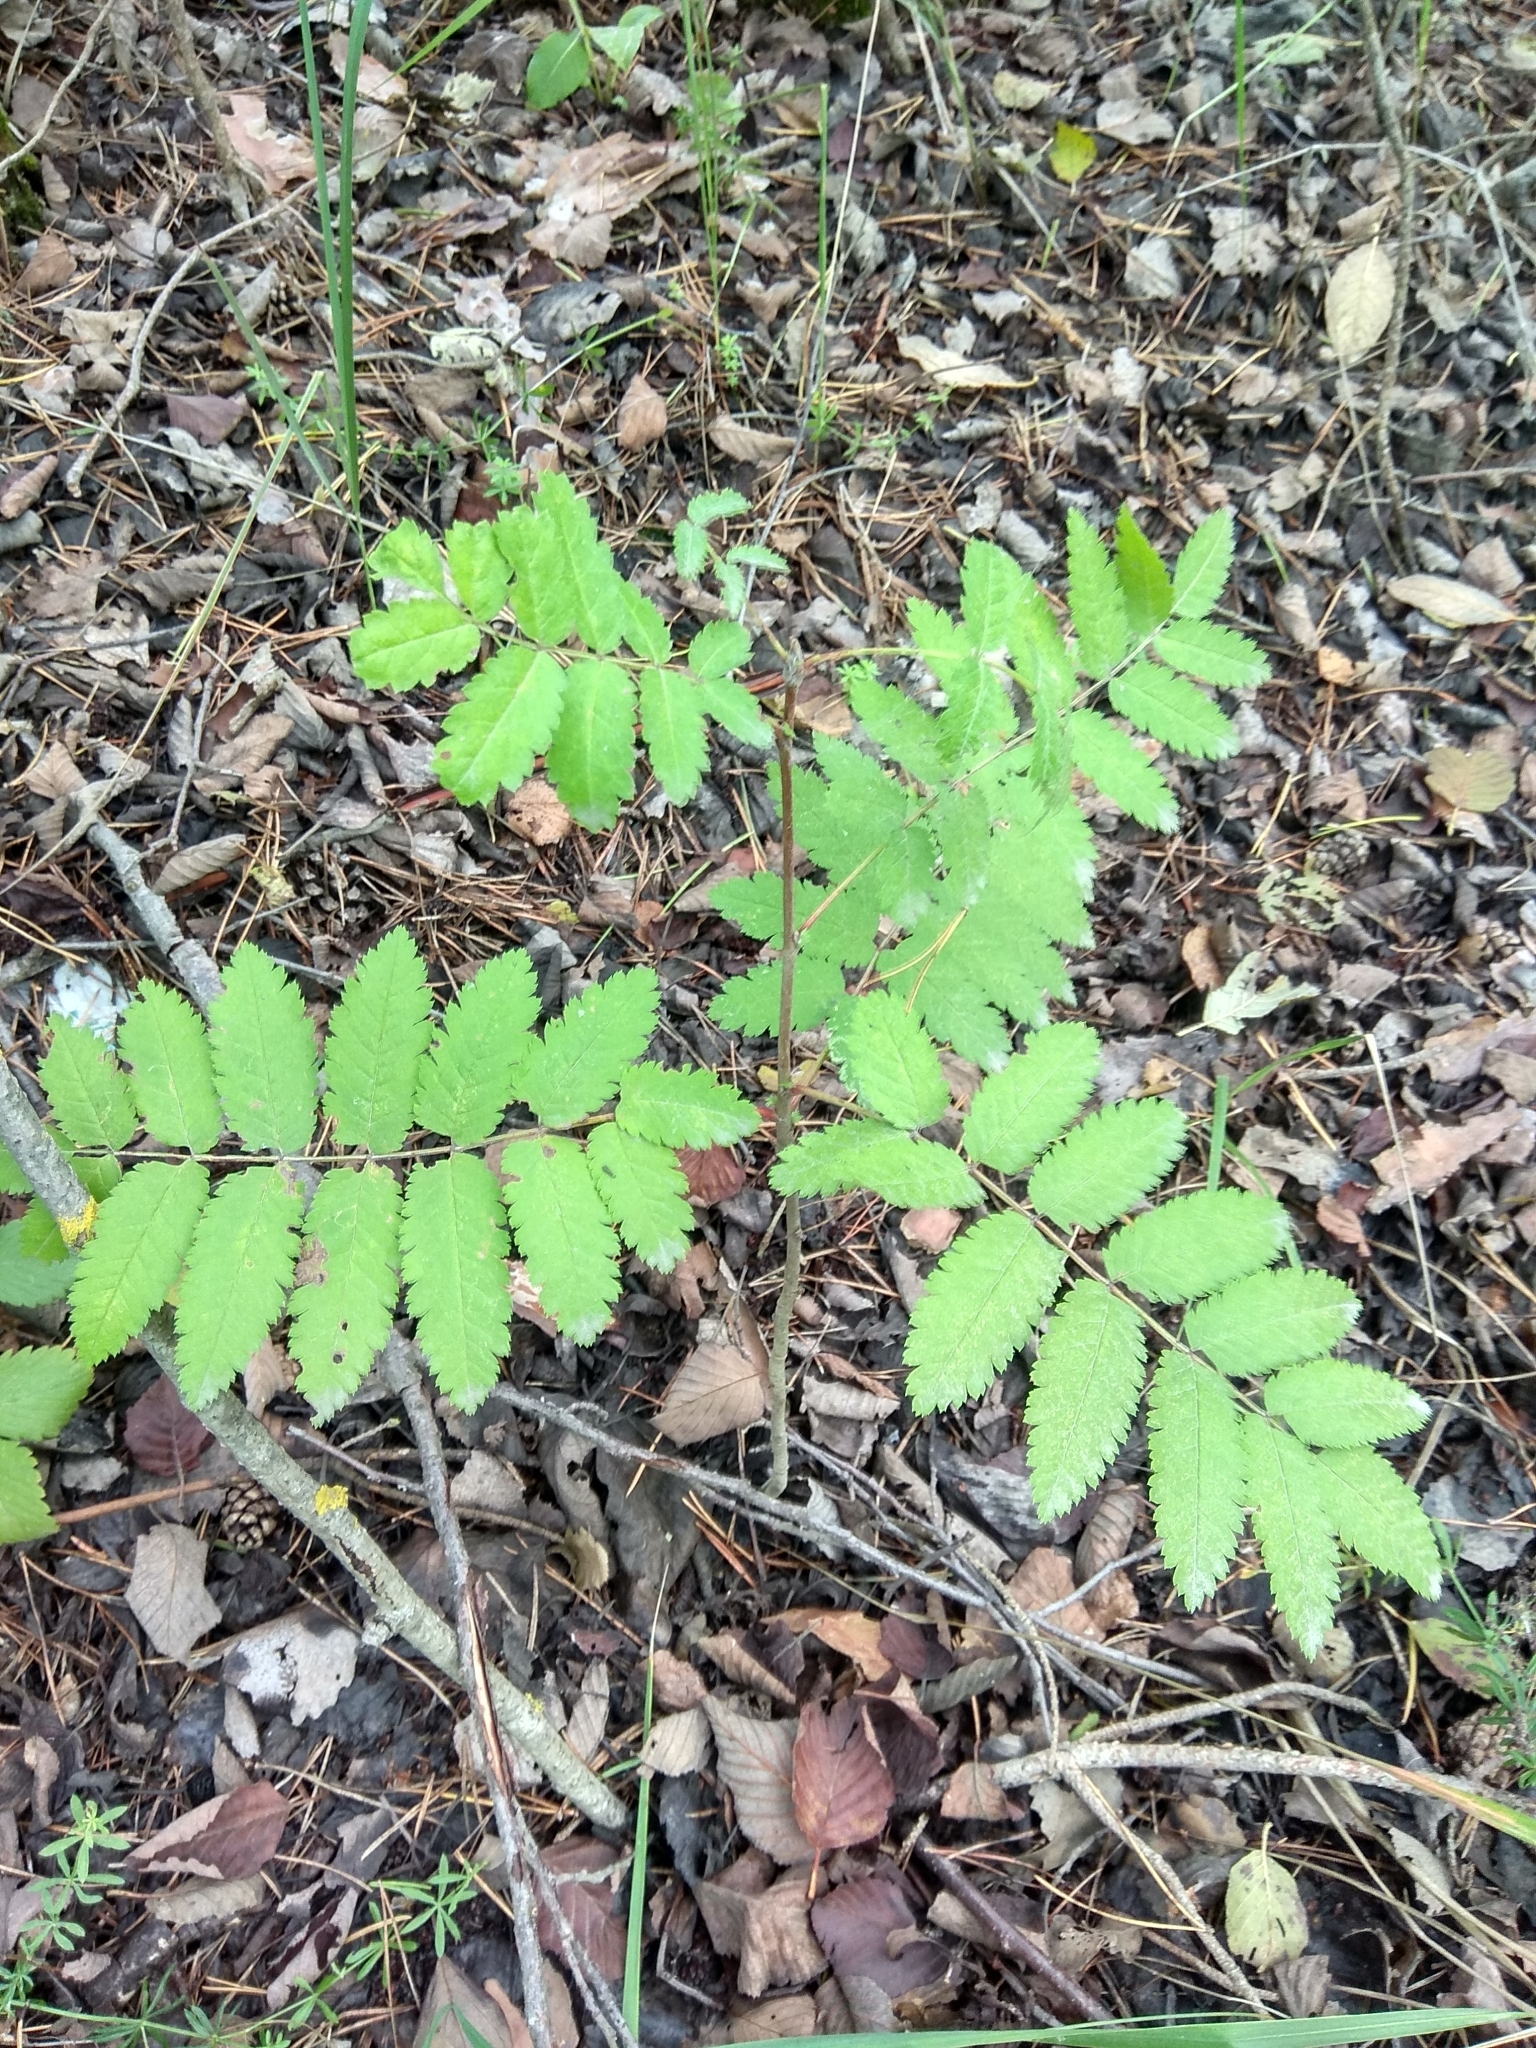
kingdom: Plantae
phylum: Tracheophyta
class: Magnoliopsida
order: Rosales
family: Rosaceae
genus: Sorbus
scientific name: Sorbus aucuparia
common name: Rowan
